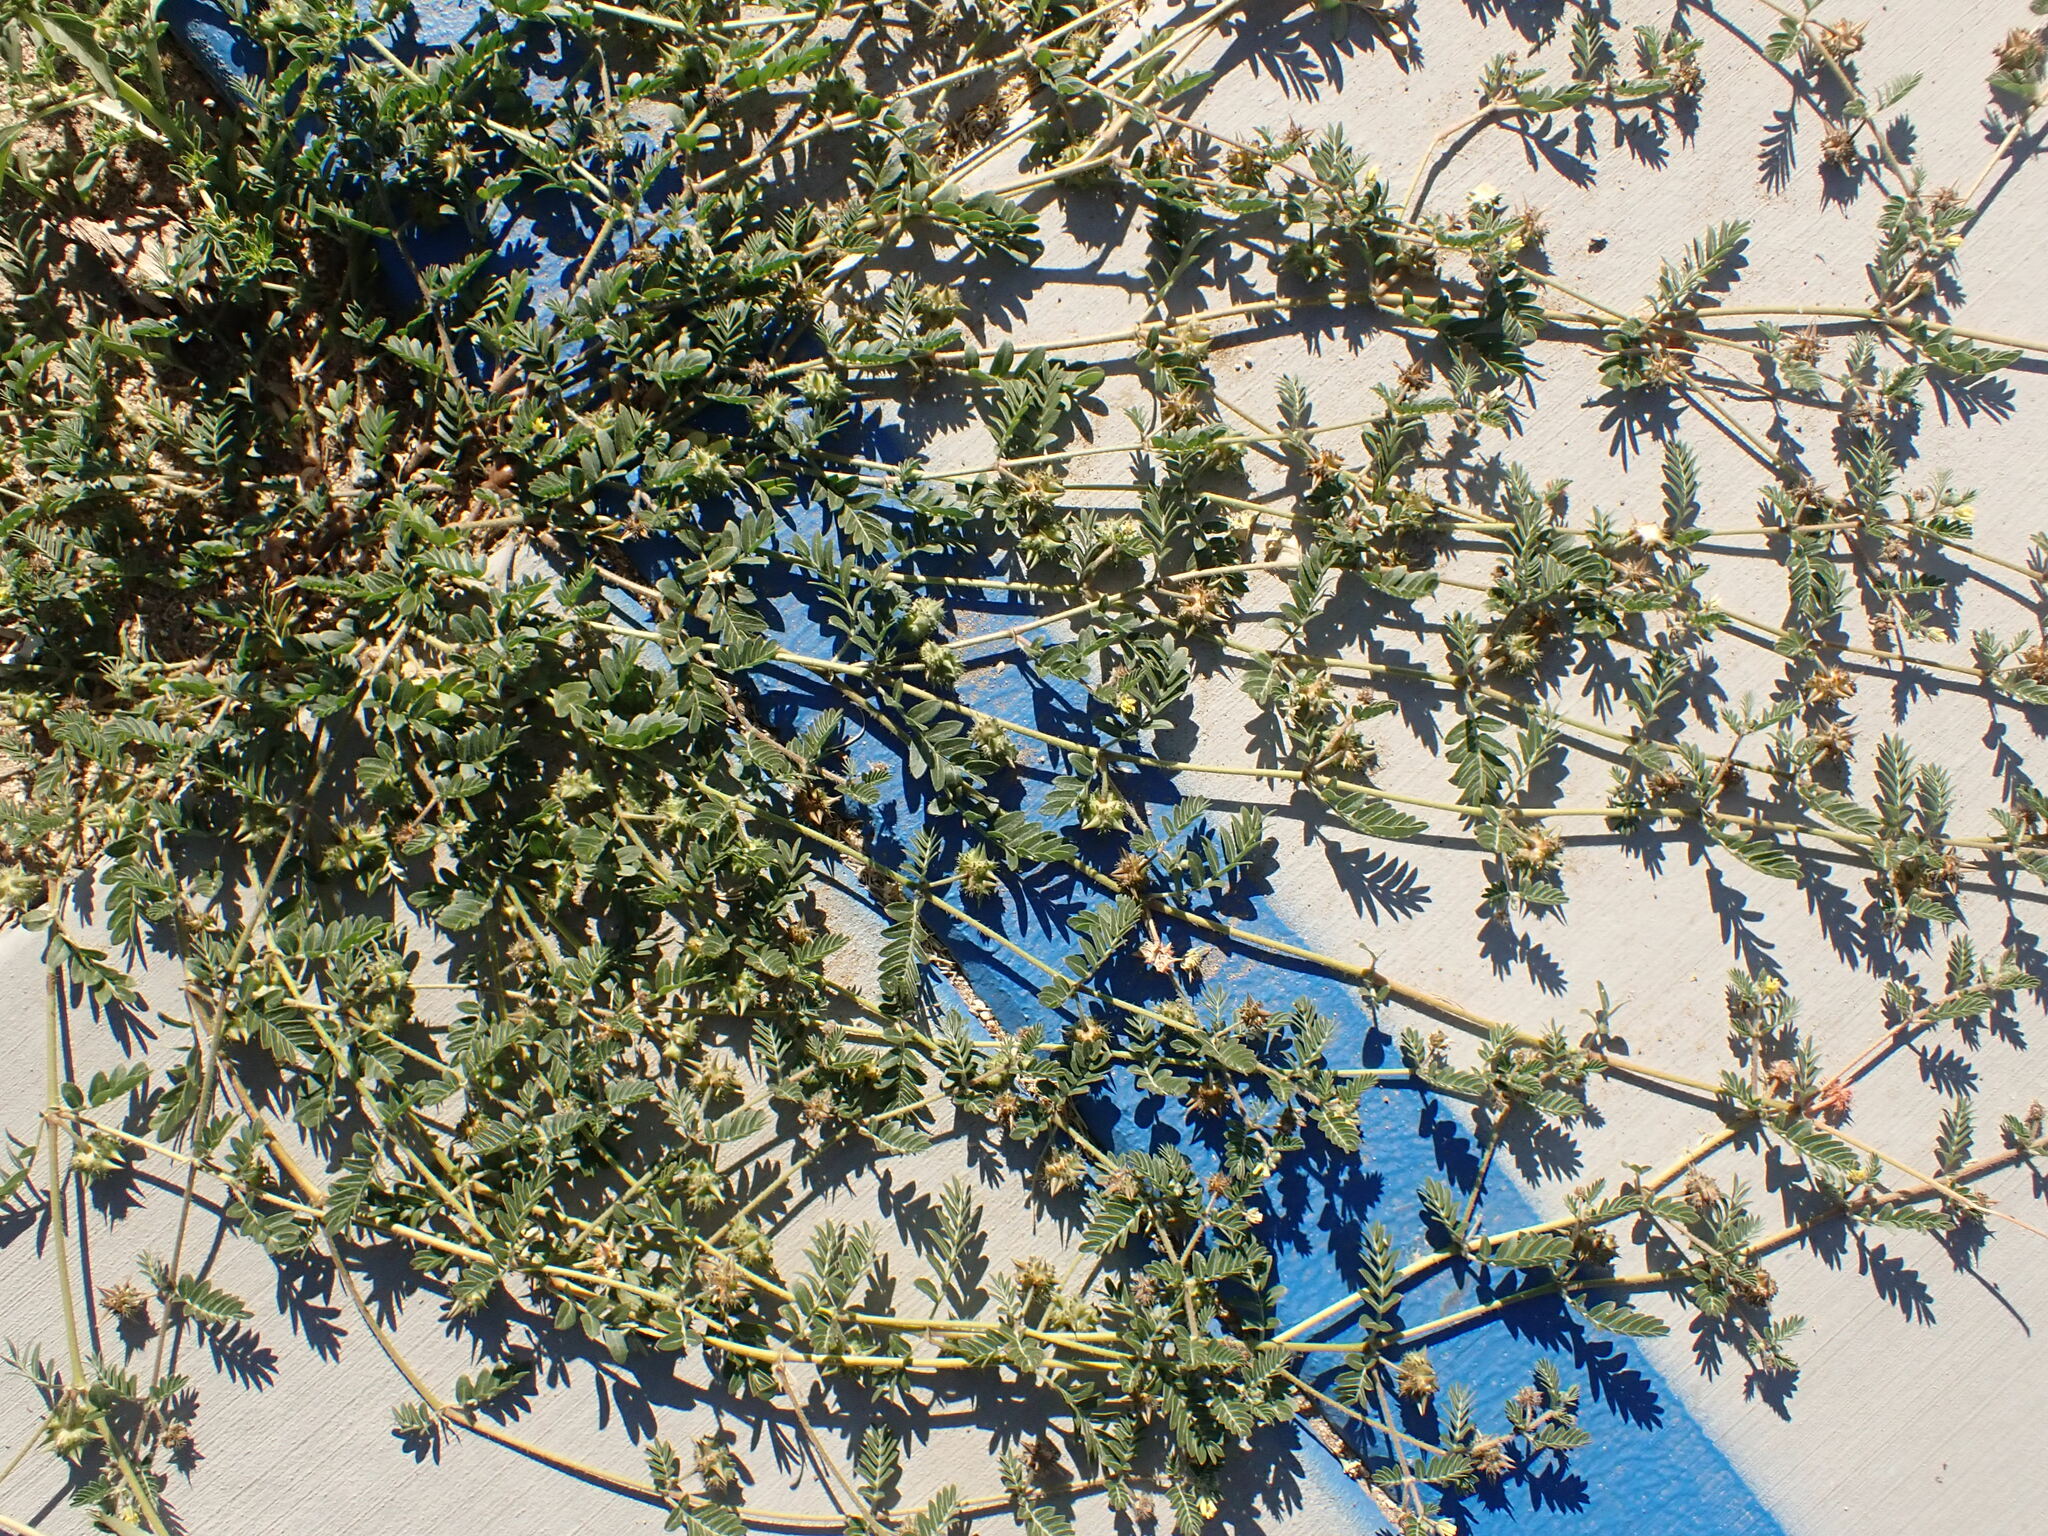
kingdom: Plantae
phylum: Tracheophyta
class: Magnoliopsida
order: Zygophyllales
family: Zygophyllaceae
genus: Tribulus
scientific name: Tribulus terrestris
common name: Puncturevine
